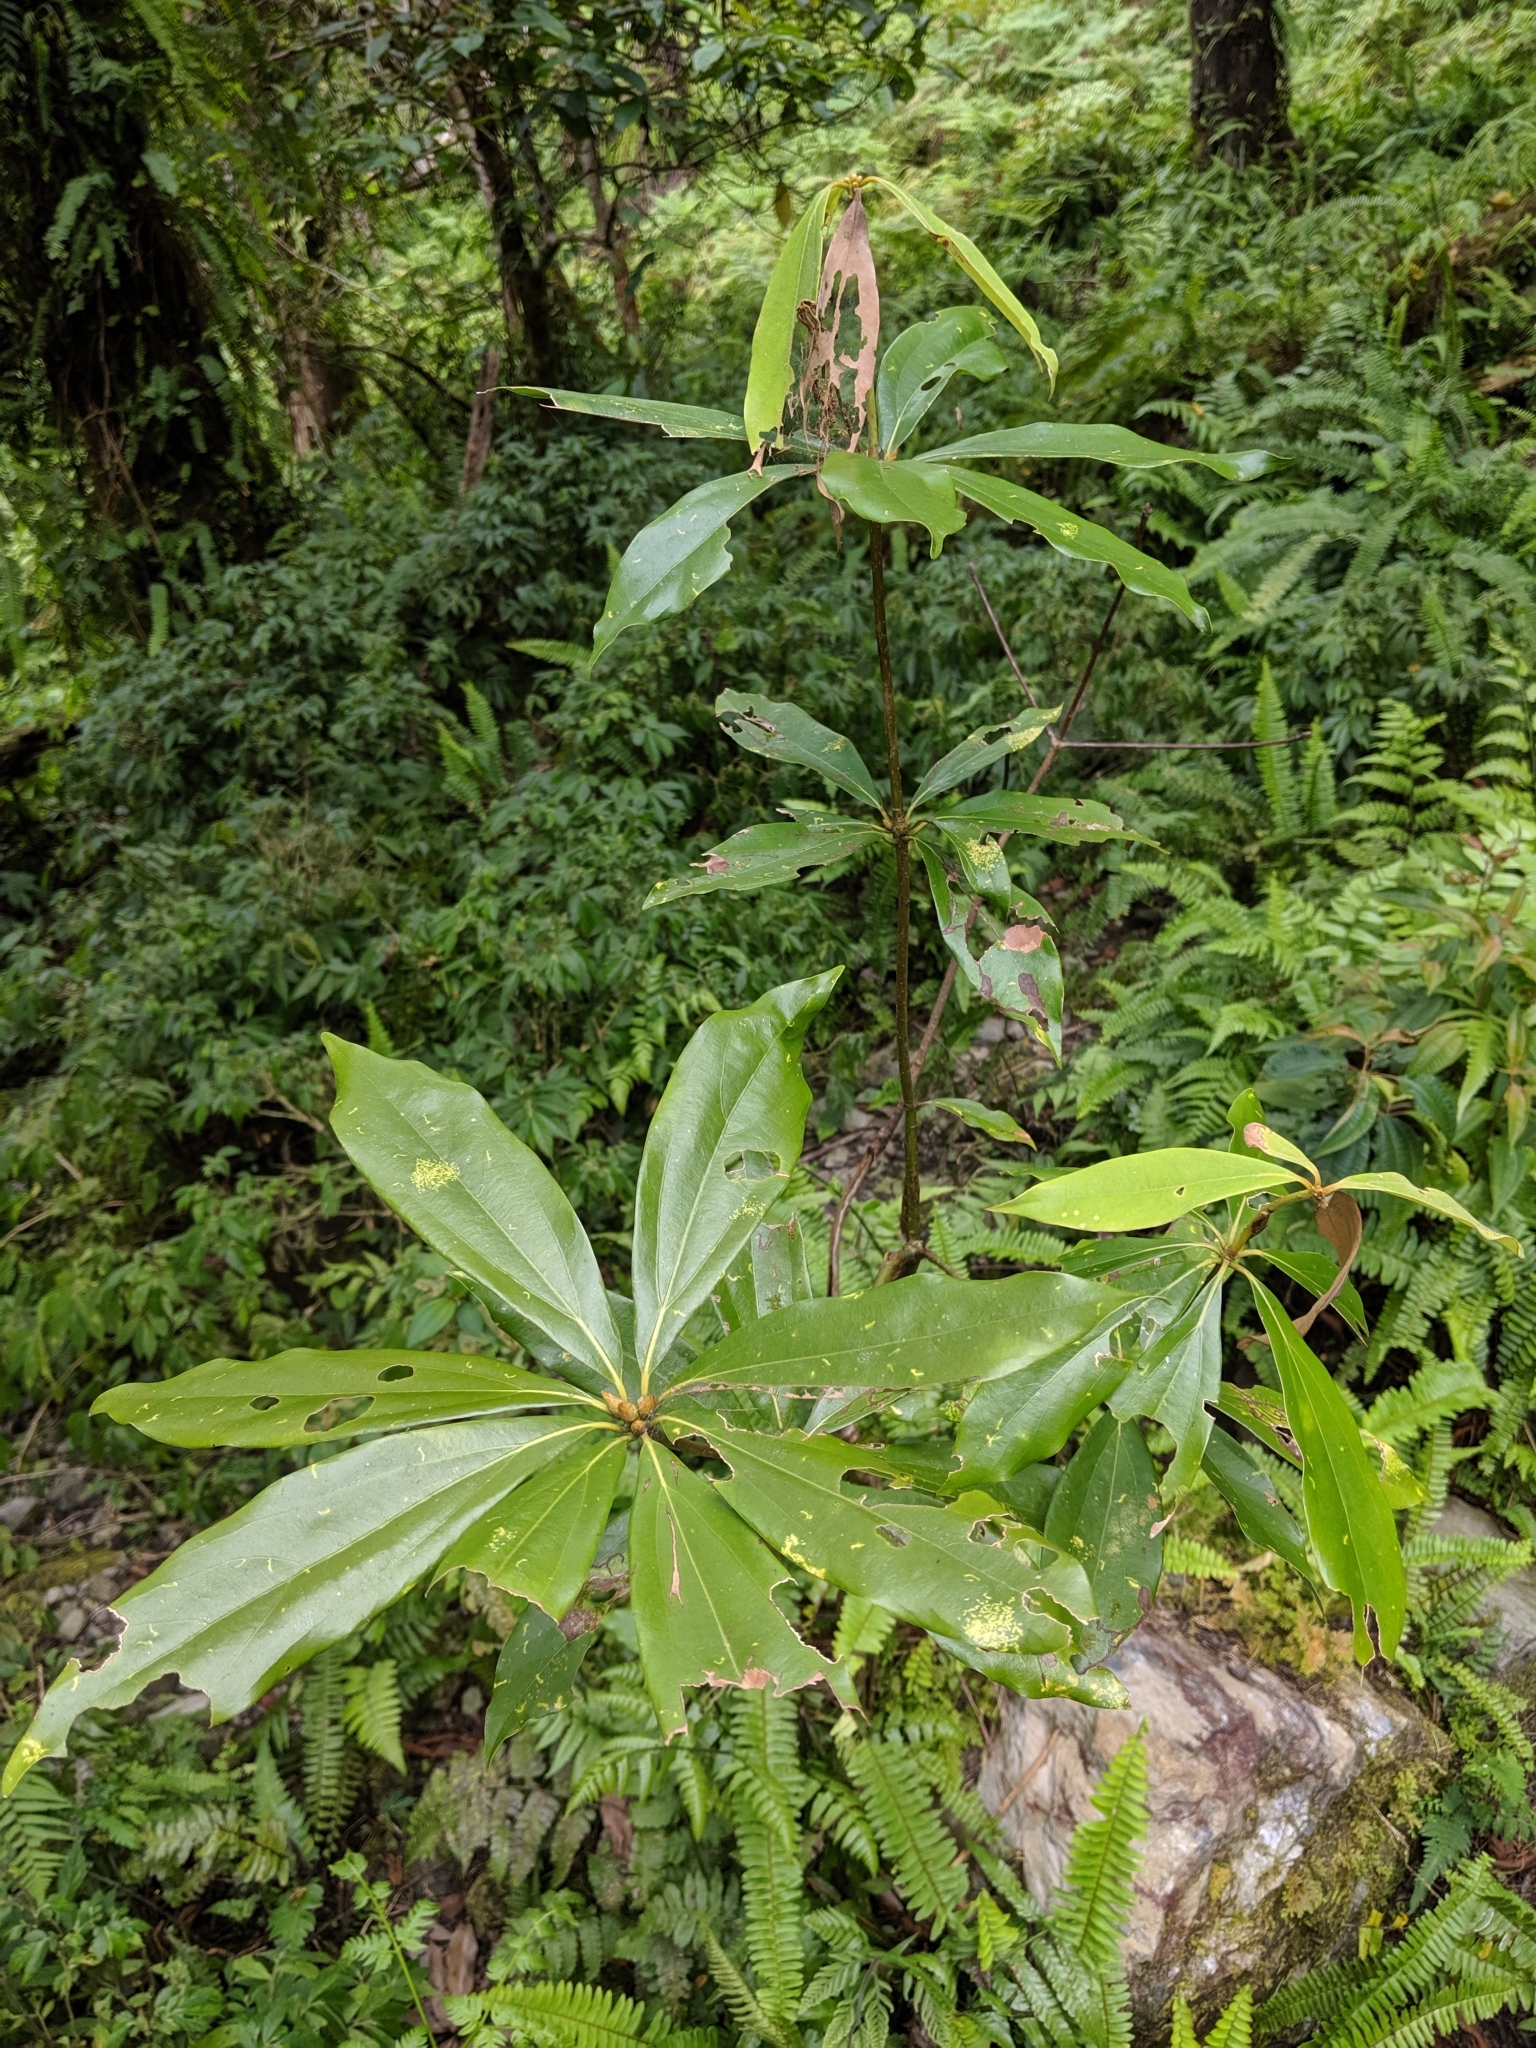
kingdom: Plantae
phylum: Tracheophyta
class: Magnoliopsida
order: Laurales
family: Lauraceae
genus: Neolitsea
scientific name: Neolitsea konishii
